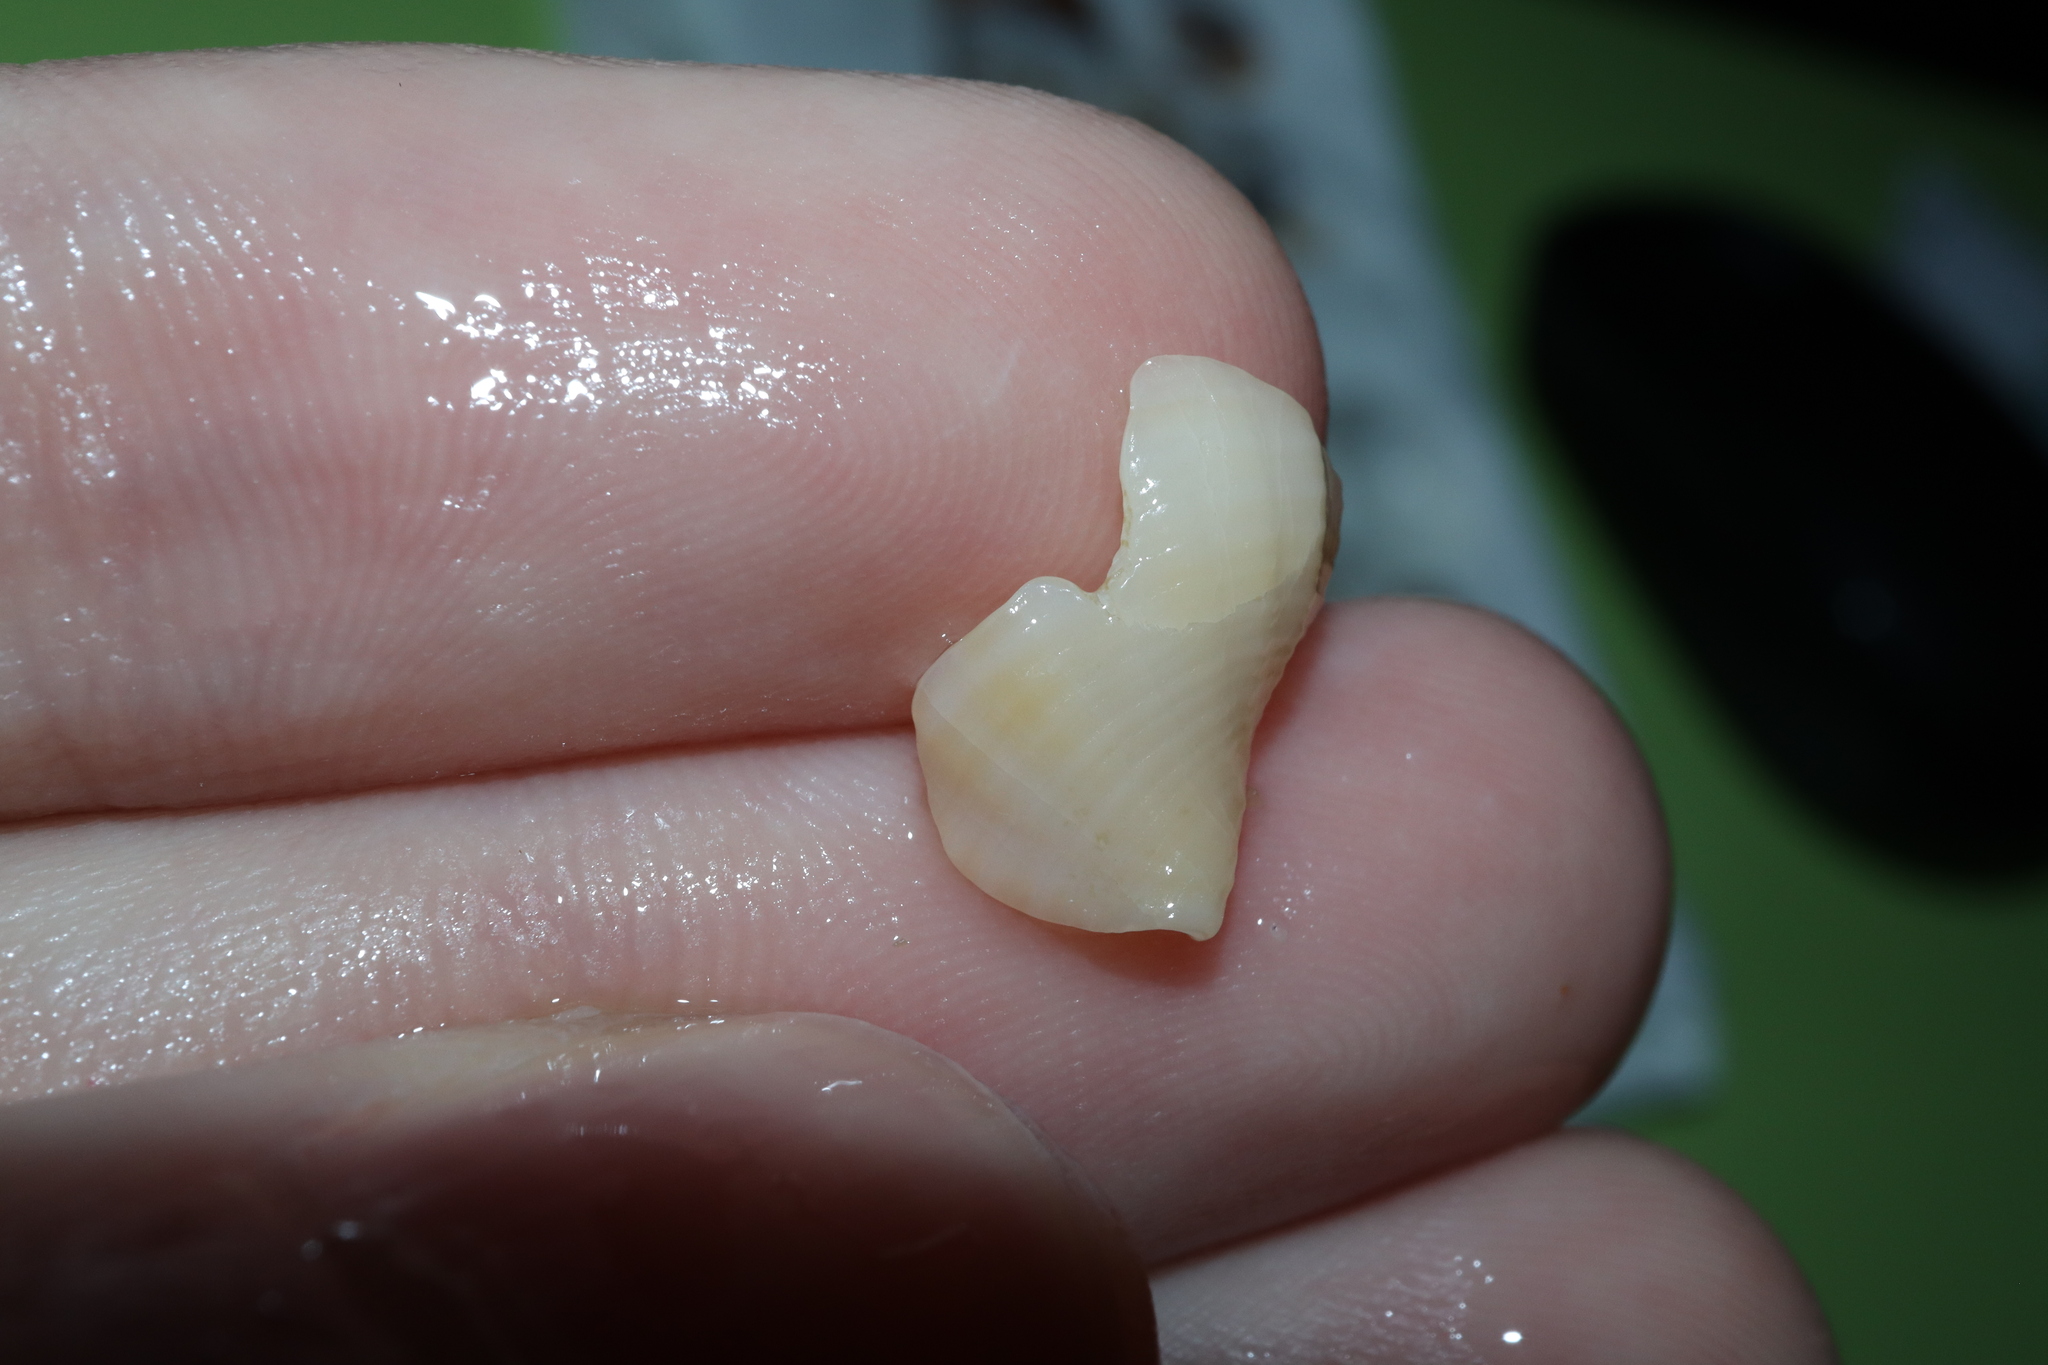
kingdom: Animalia
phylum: Mollusca
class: Gastropoda
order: Neogastropoda
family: Cancellariidae
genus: Merica
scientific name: Merica undulata
